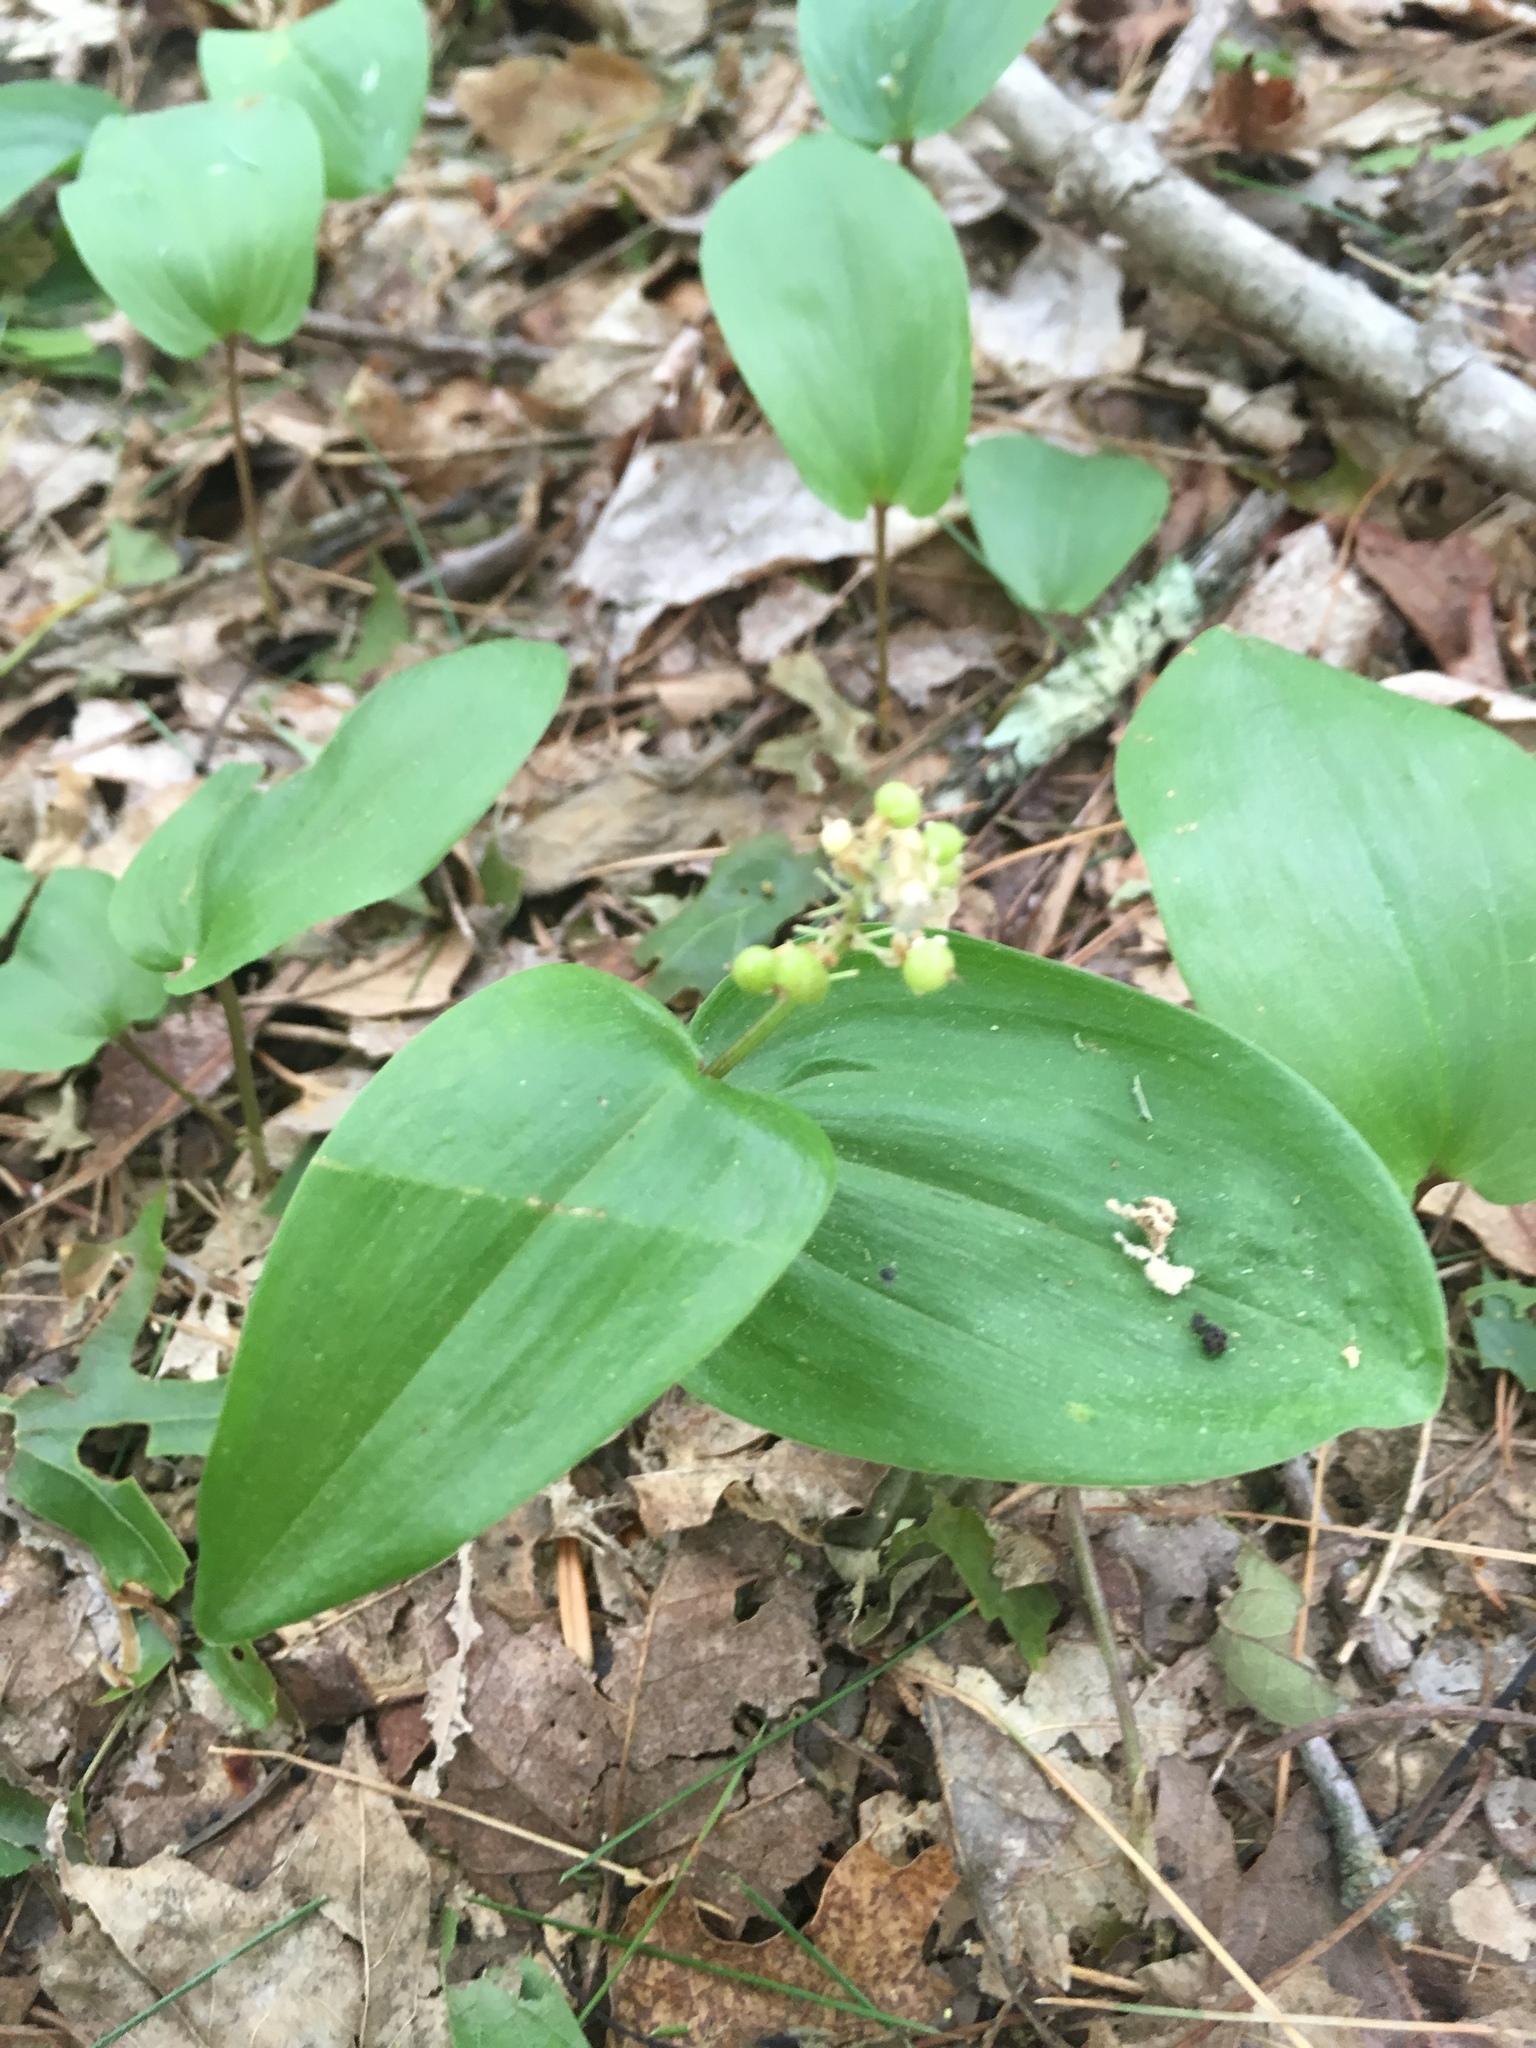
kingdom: Plantae
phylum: Tracheophyta
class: Liliopsida
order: Asparagales
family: Asparagaceae
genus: Maianthemum
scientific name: Maianthemum canadense
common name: False lily-of-the-valley
